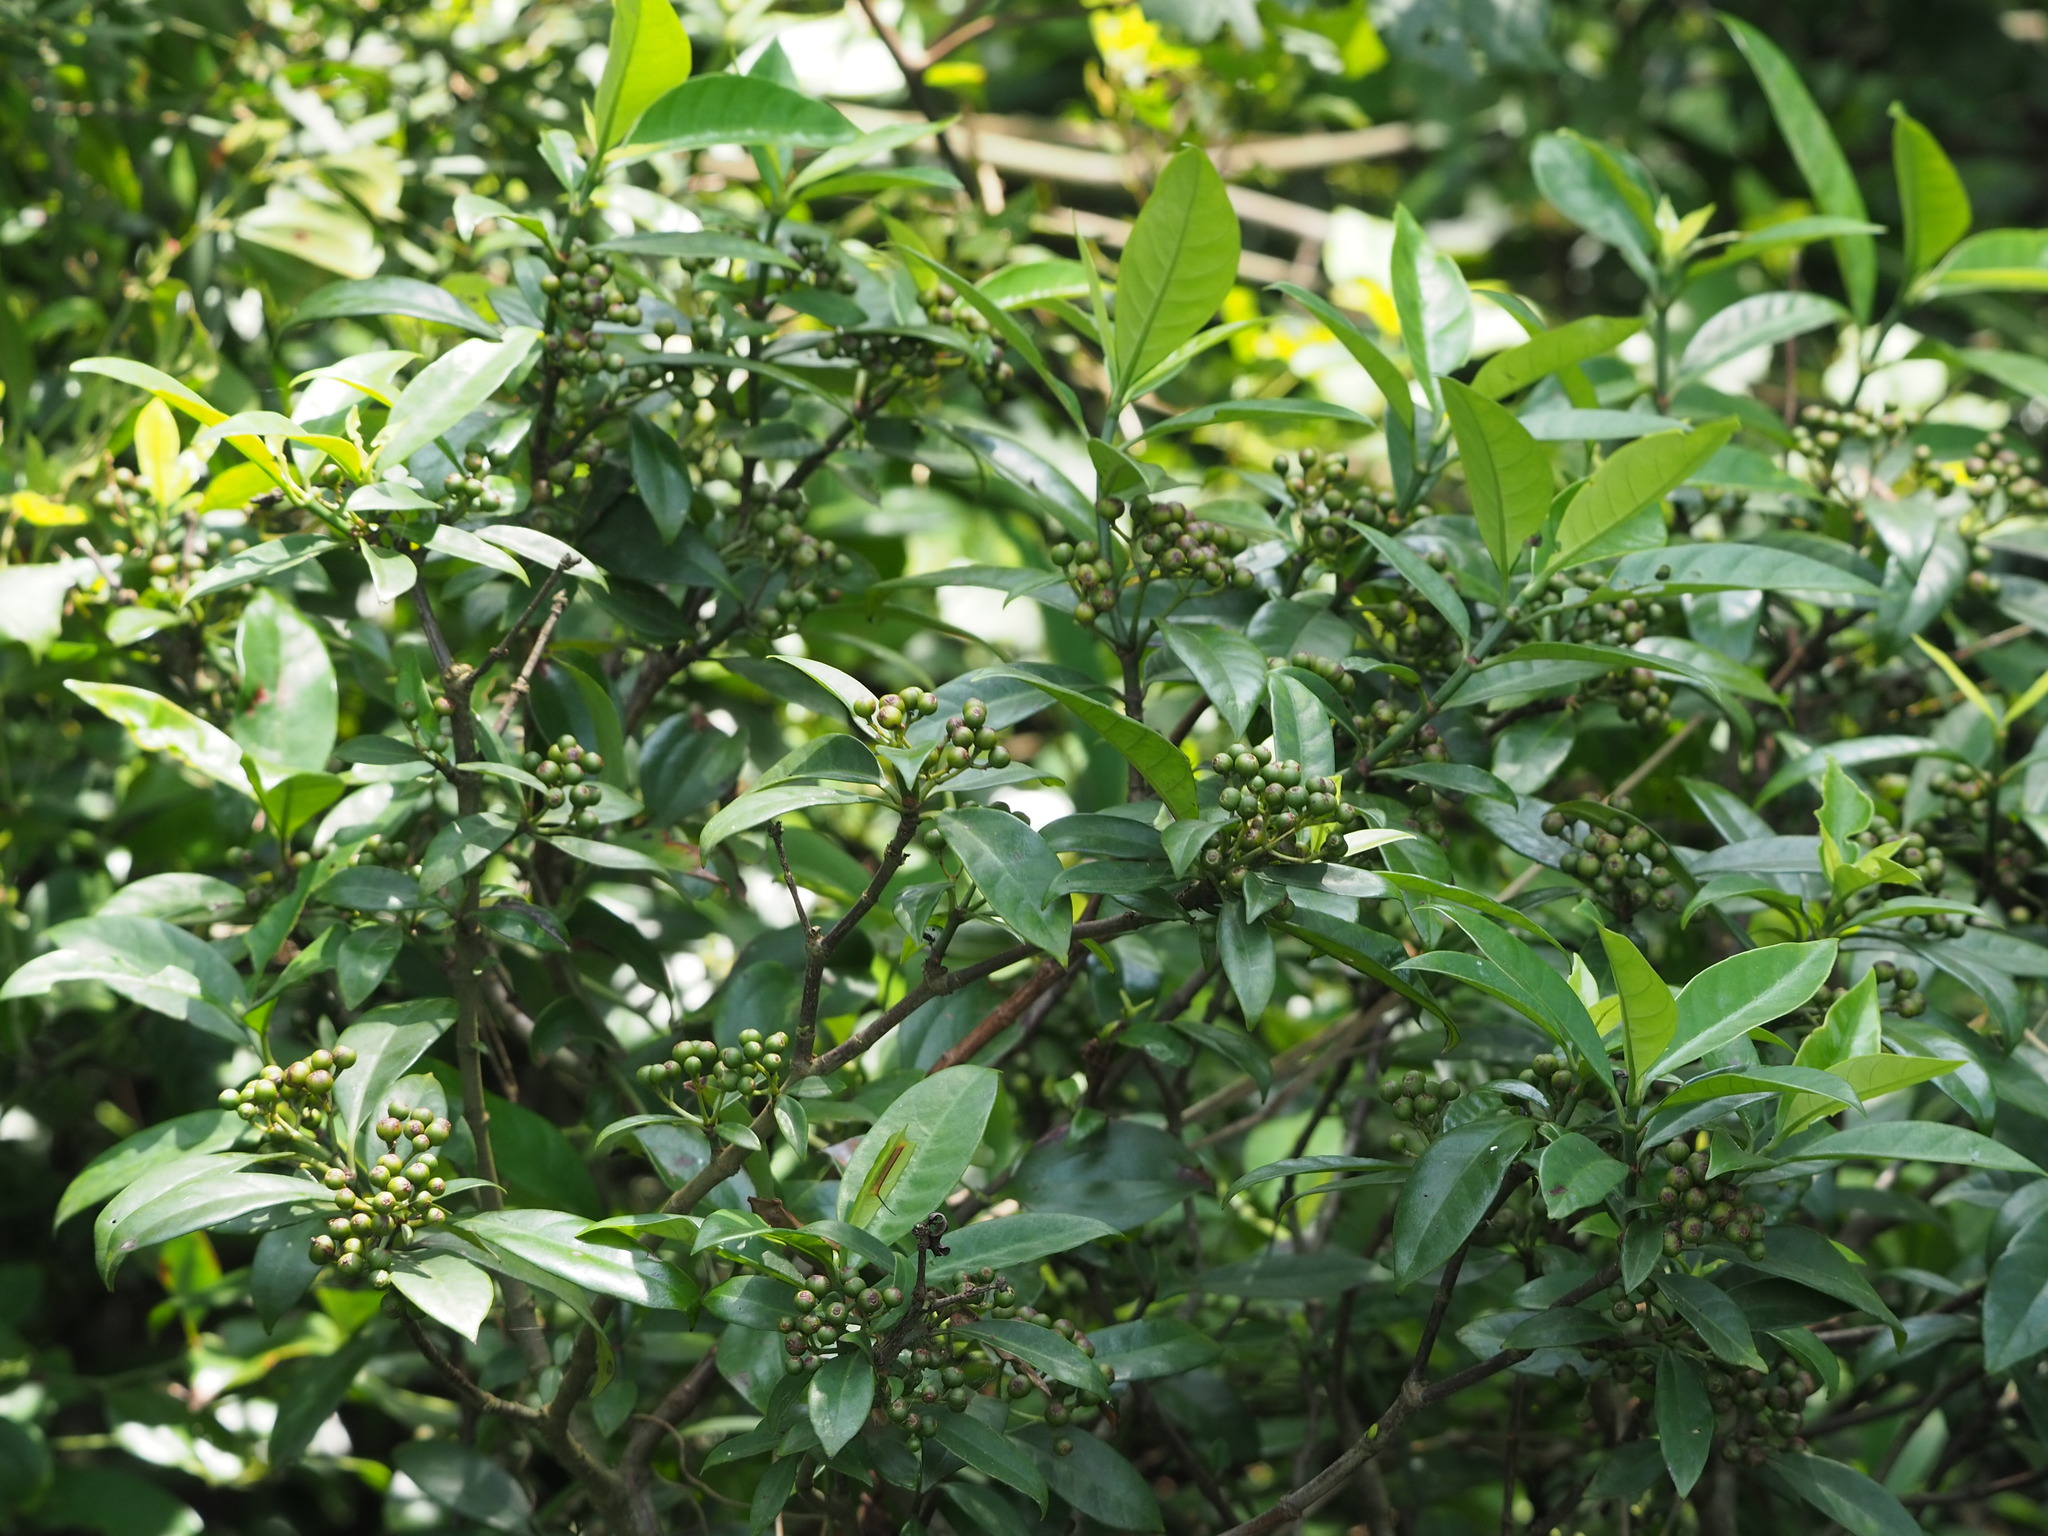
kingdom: Plantae
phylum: Tracheophyta
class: Magnoliopsida
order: Gentianales
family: Rubiaceae
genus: Psychotria
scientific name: Psychotria asiatica
